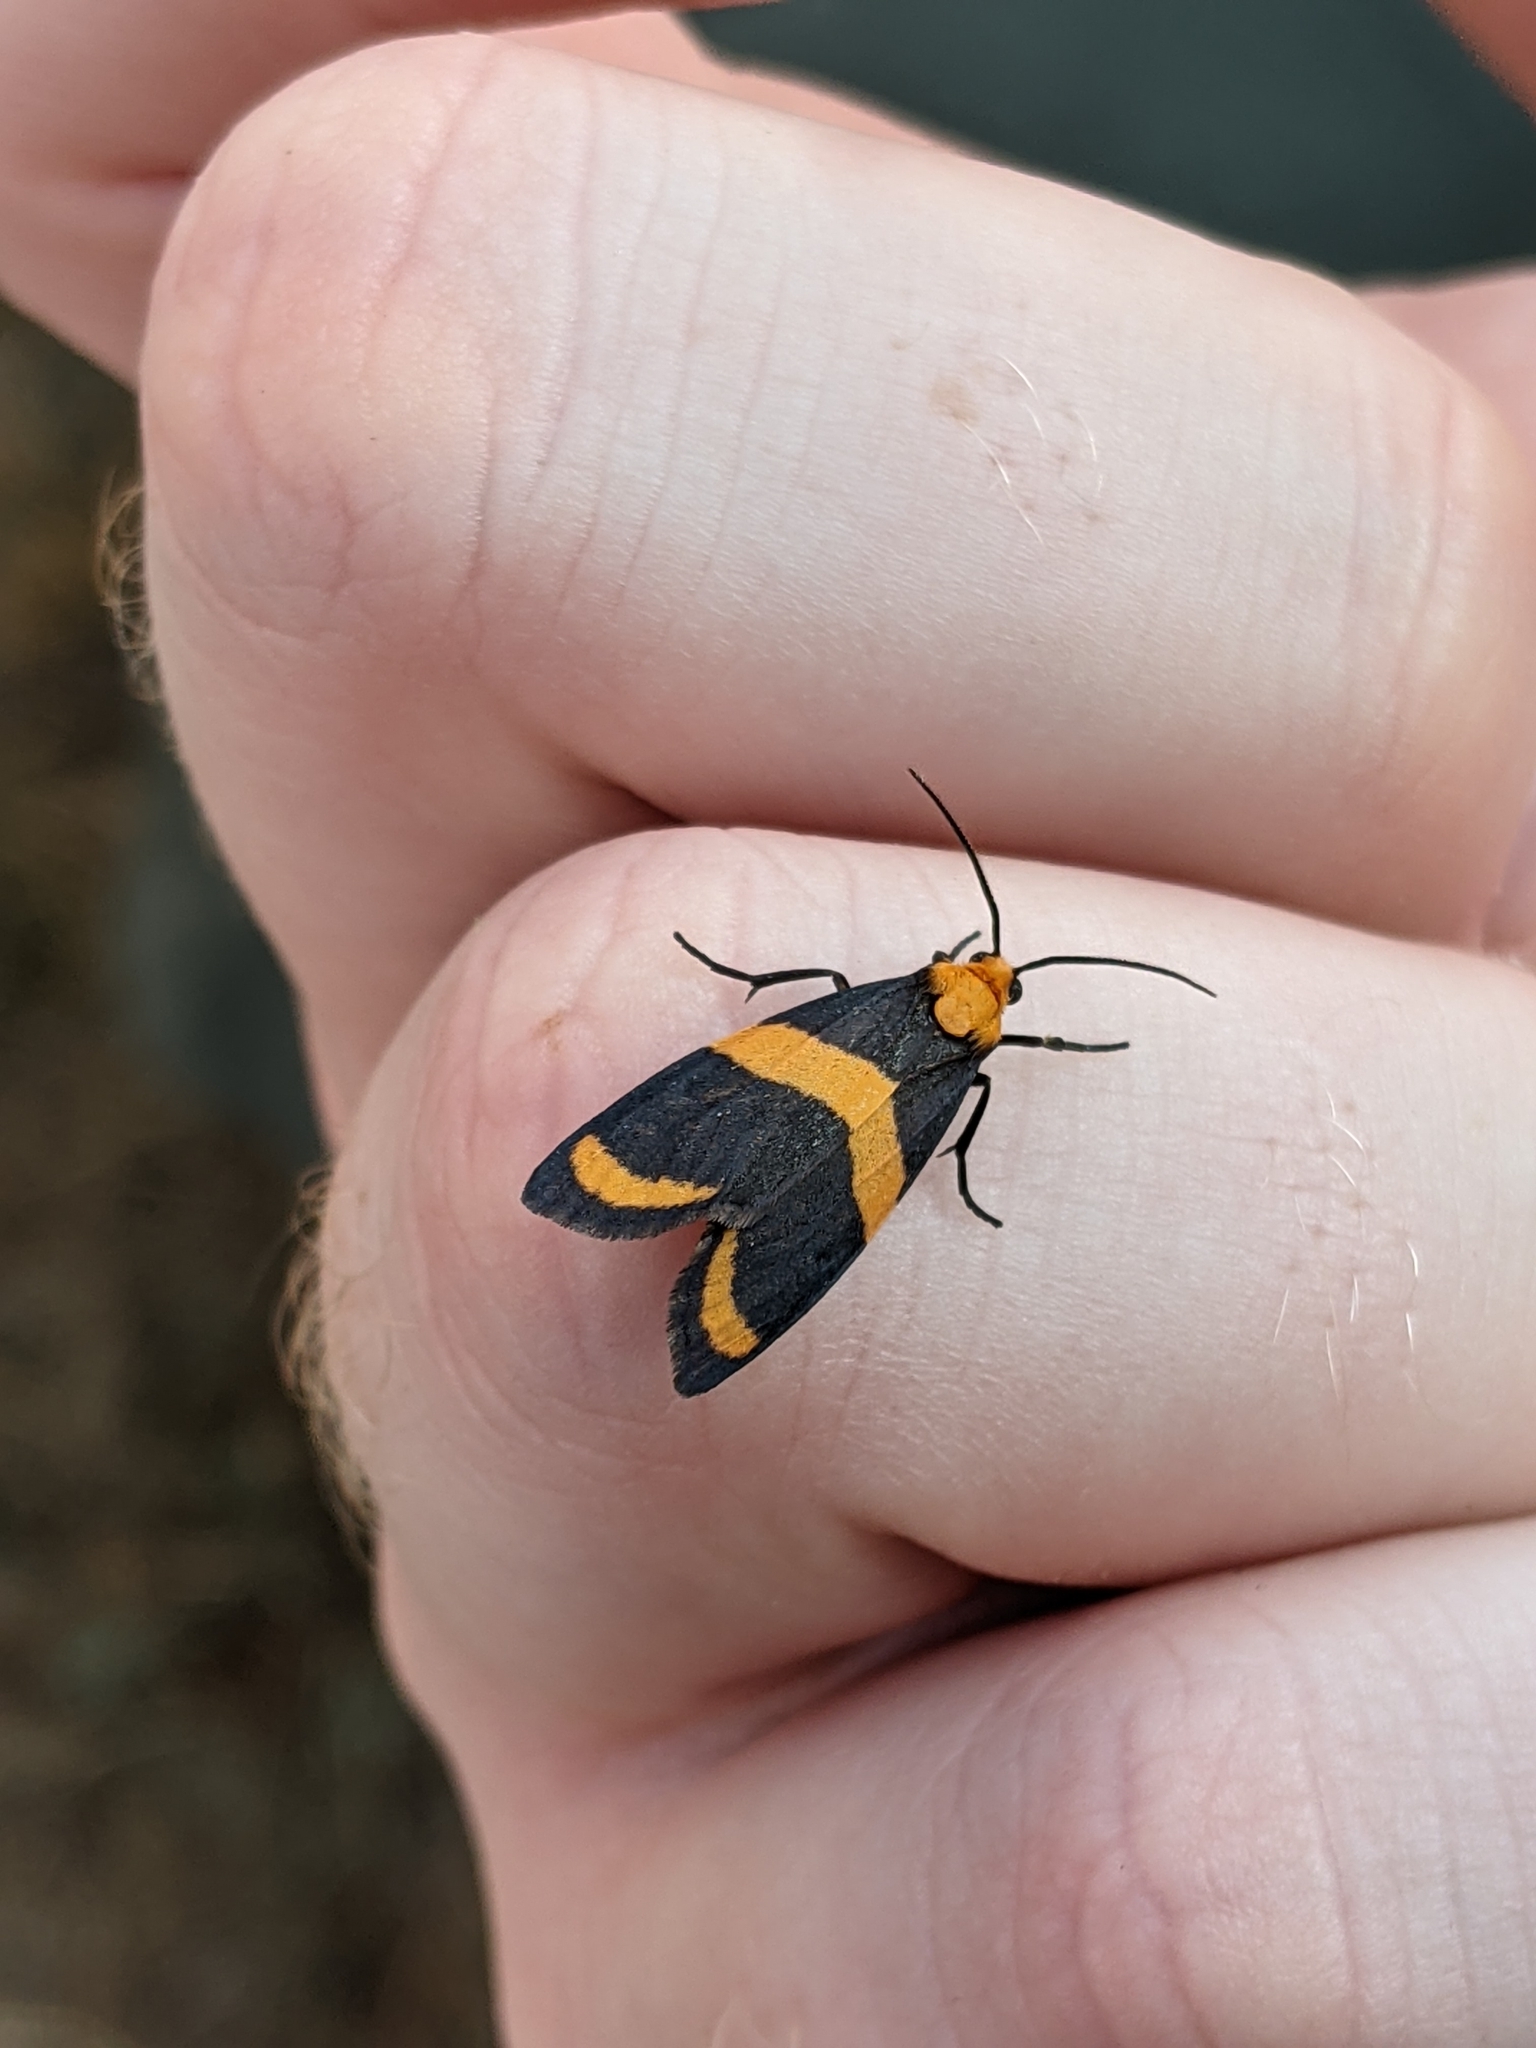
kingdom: Animalia
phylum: Arthropoda
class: Insecta
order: Lepidoptera
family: Erebidae
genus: Eudesmia
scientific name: Eudesmia arida
